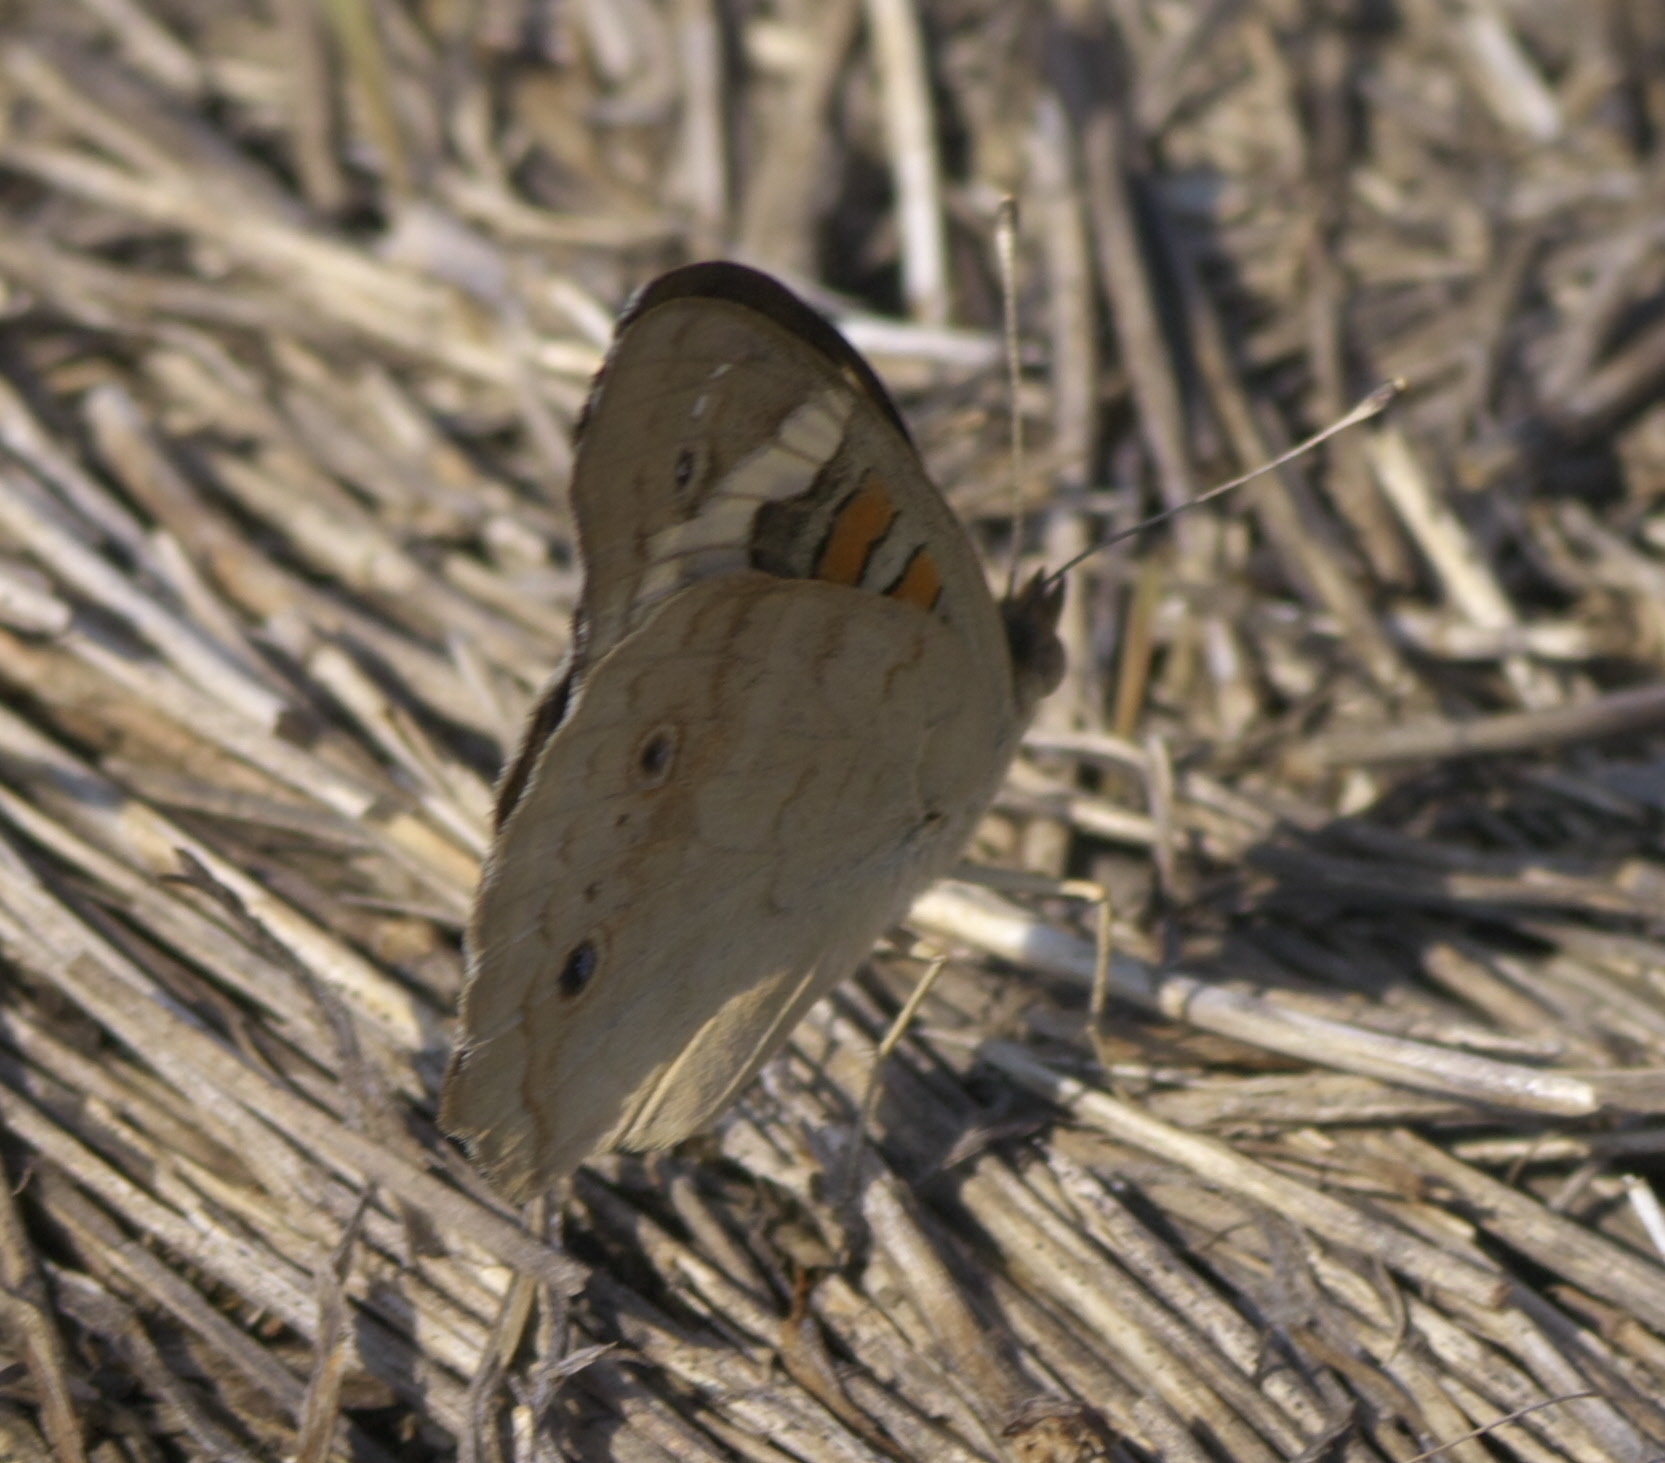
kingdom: Animalia
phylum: Arthropoda
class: Insecta
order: Lepidoptera
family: Nymphalidae
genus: Junonia
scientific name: Junonia coenia
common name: Common buckeye
